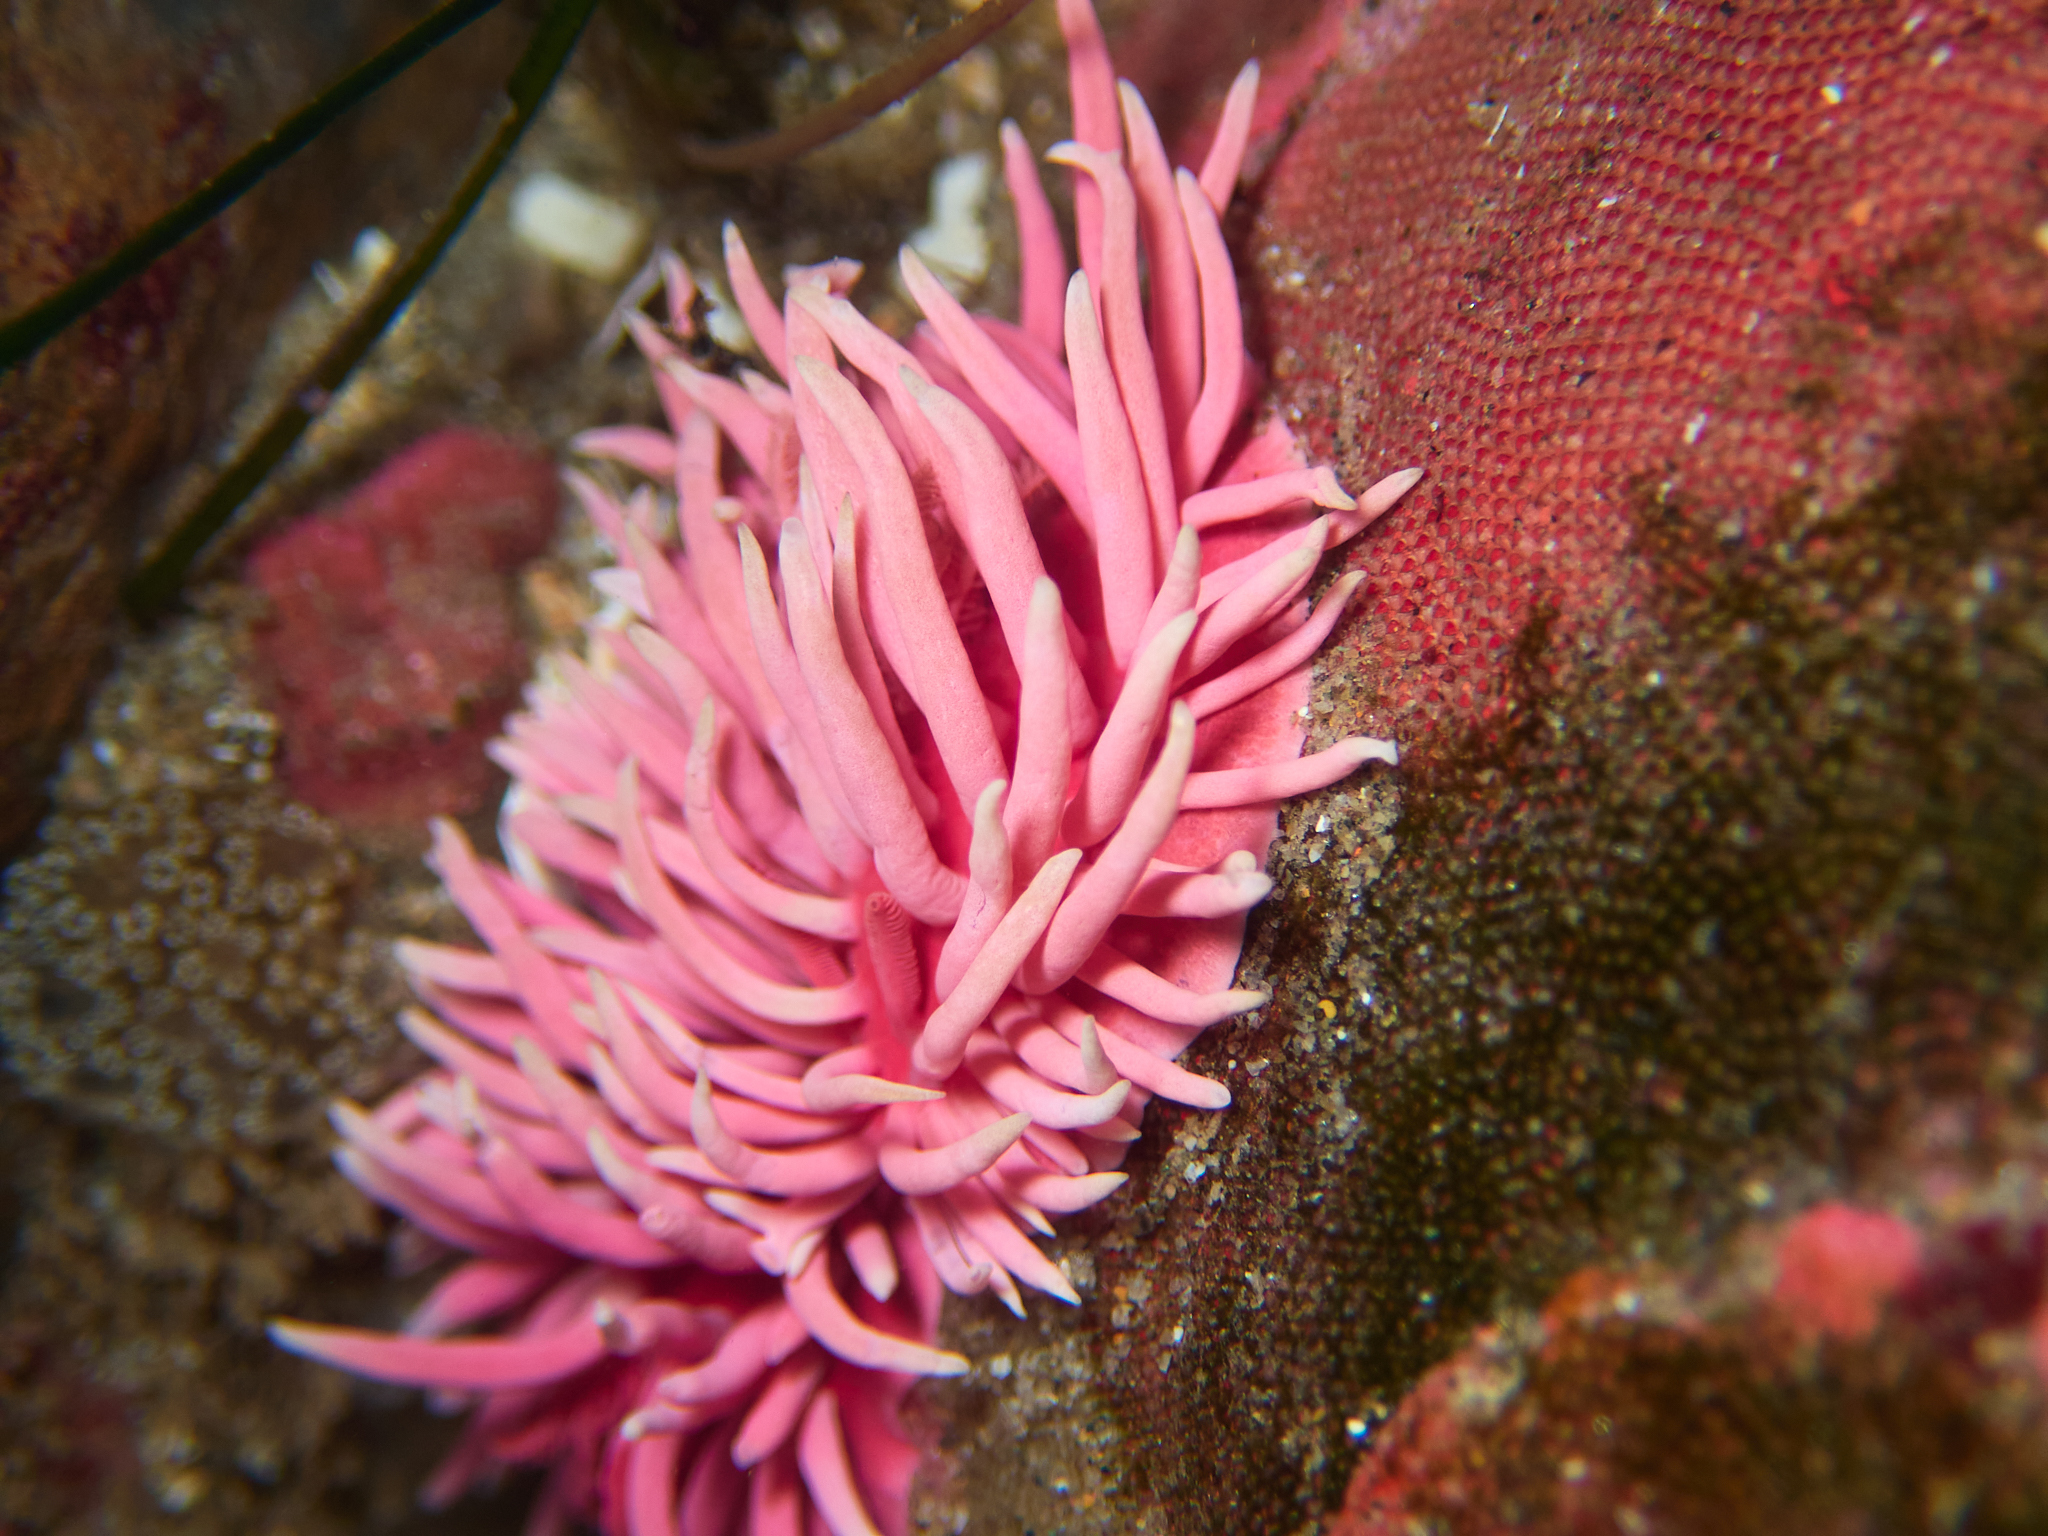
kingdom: Animalia
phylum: Mollusca
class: Gastropoda
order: Nudibranchia
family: Goniodorididae
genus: Okenia
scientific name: Okenia
